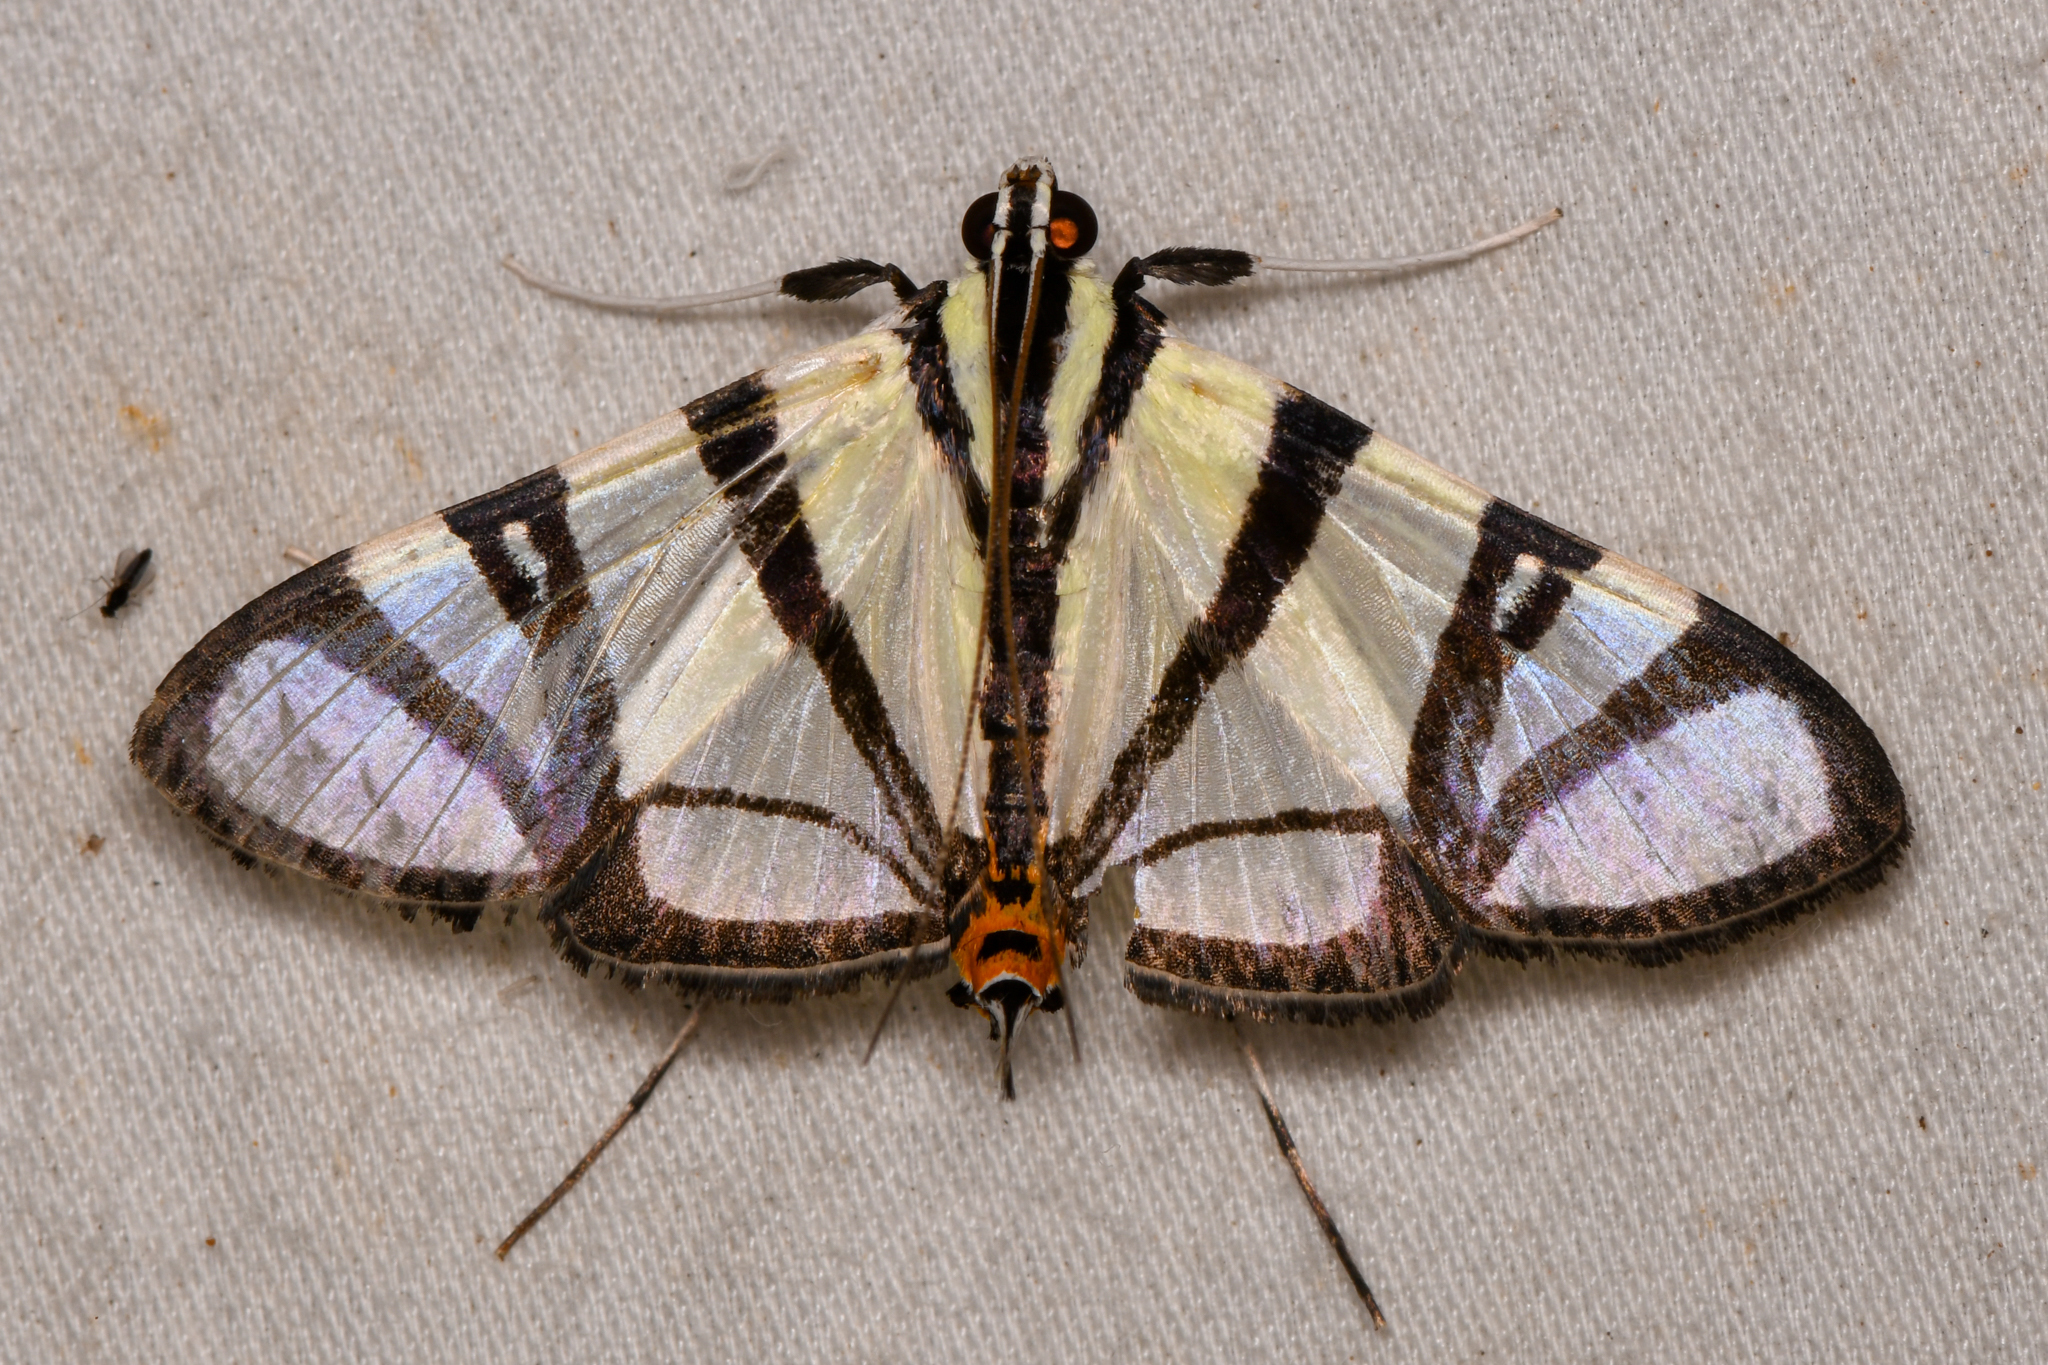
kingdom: Animalia
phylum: Arthropoda
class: Insecta
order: Lepidoptera
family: Crambidae
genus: Conchylodes
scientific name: Conchylodes nolckenialis
